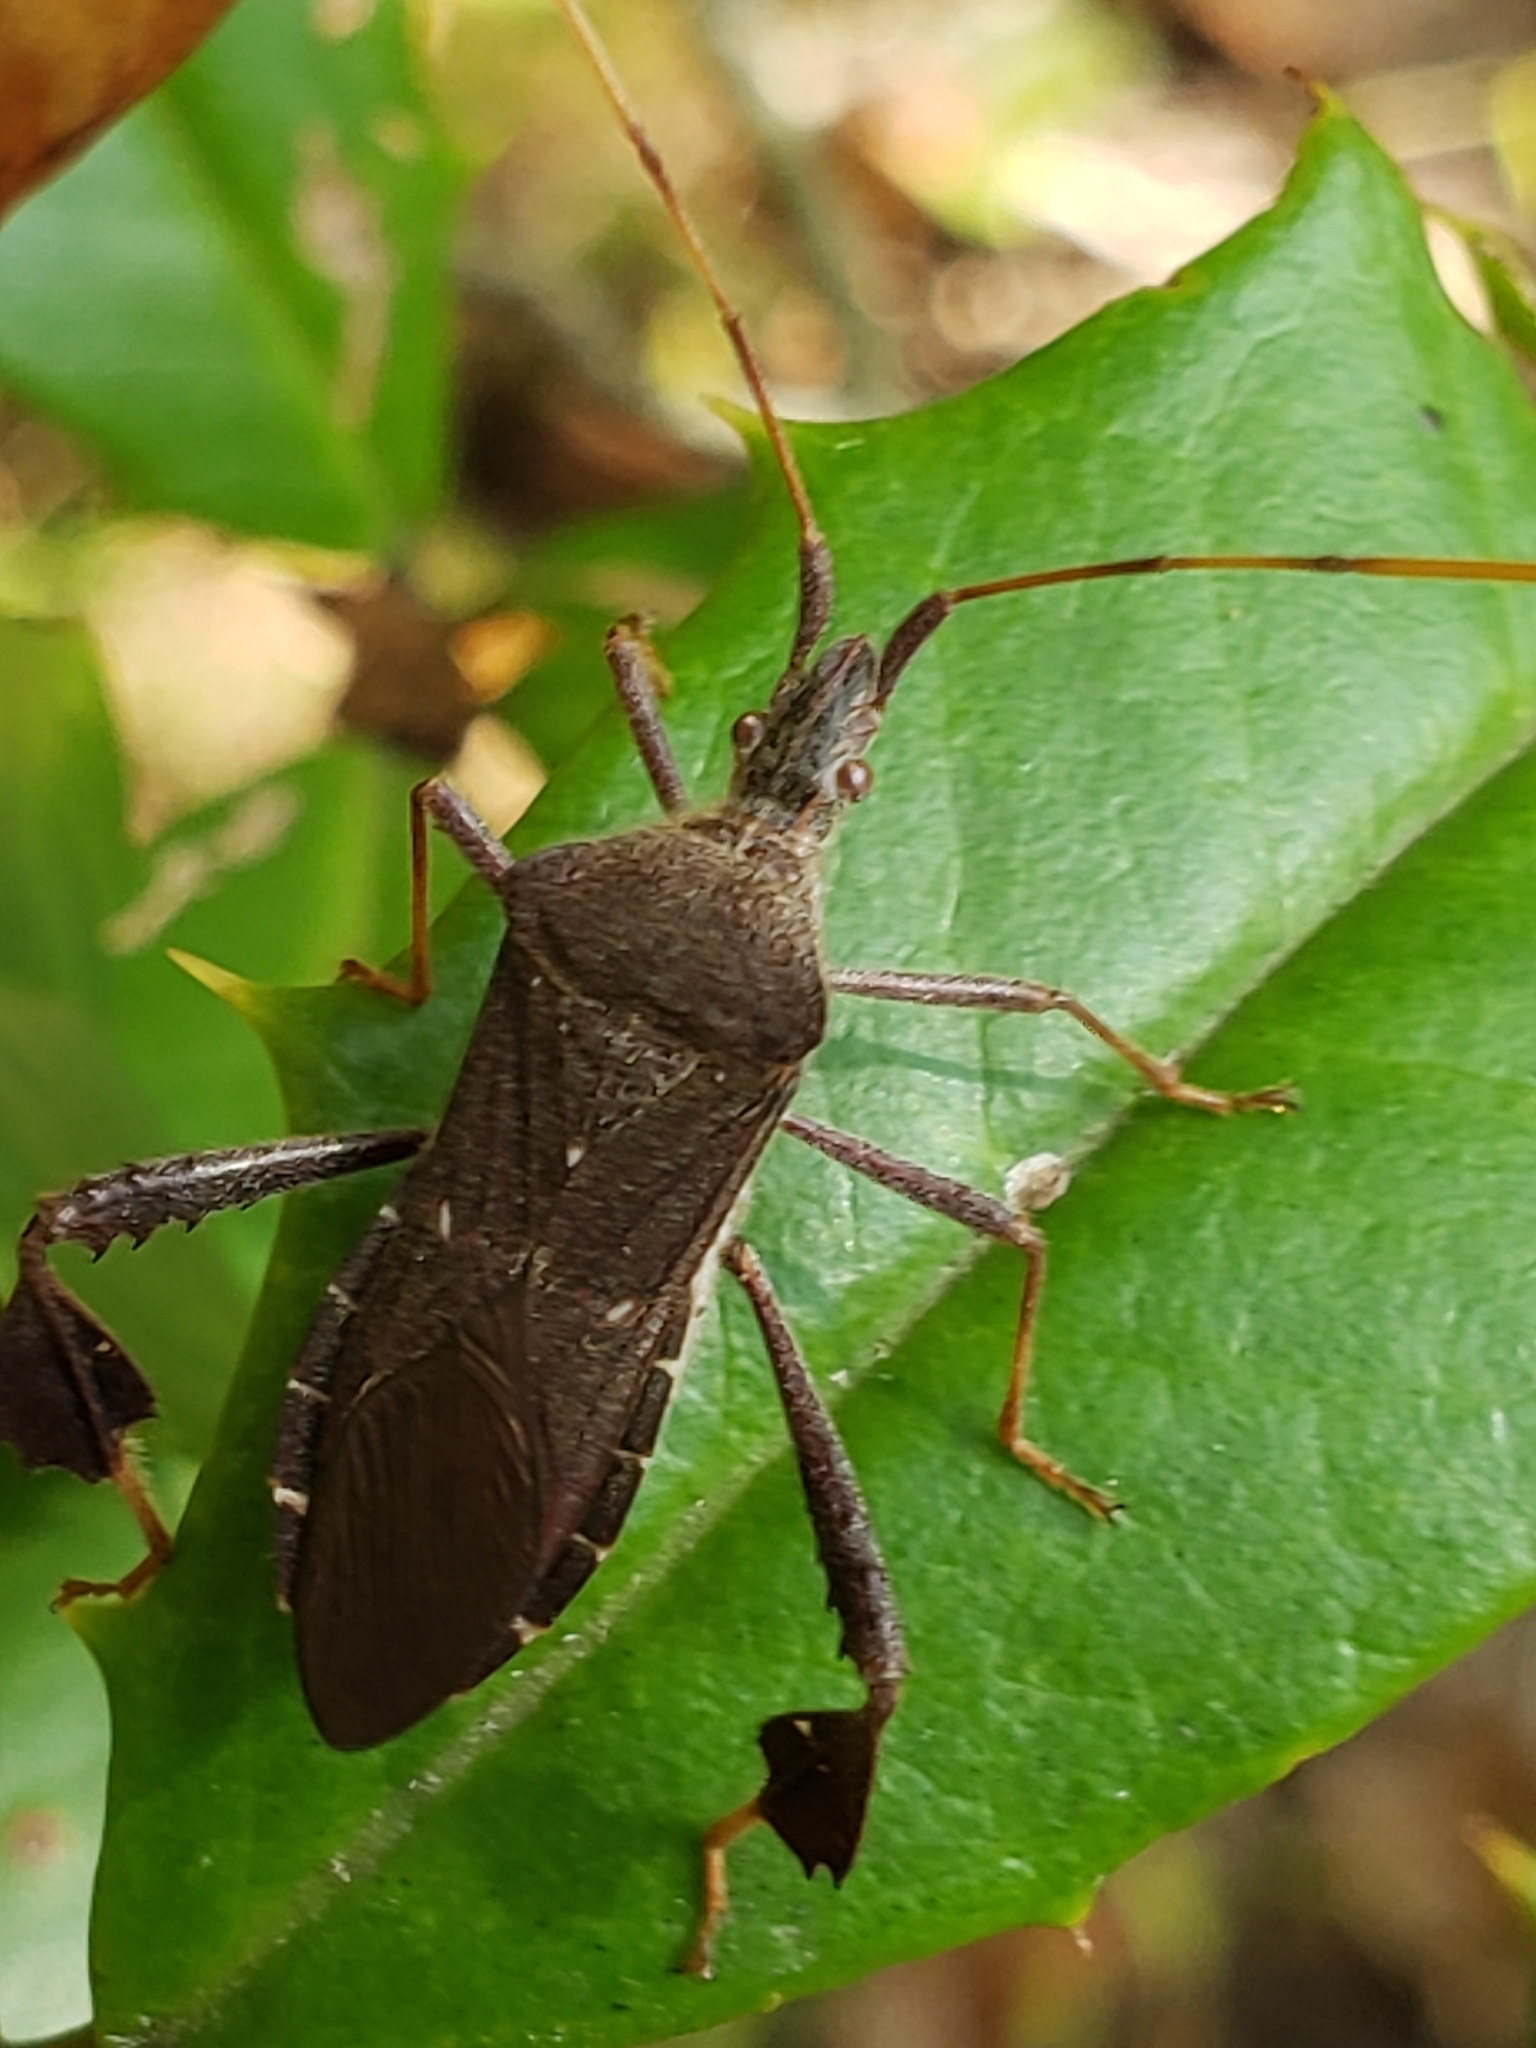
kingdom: Animalia
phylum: Arthropoda
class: Insecta
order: Hemiptera
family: Coreidae
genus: Leptoglossus
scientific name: Leptoglossus oppositus
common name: Northern leaf-footed bug
